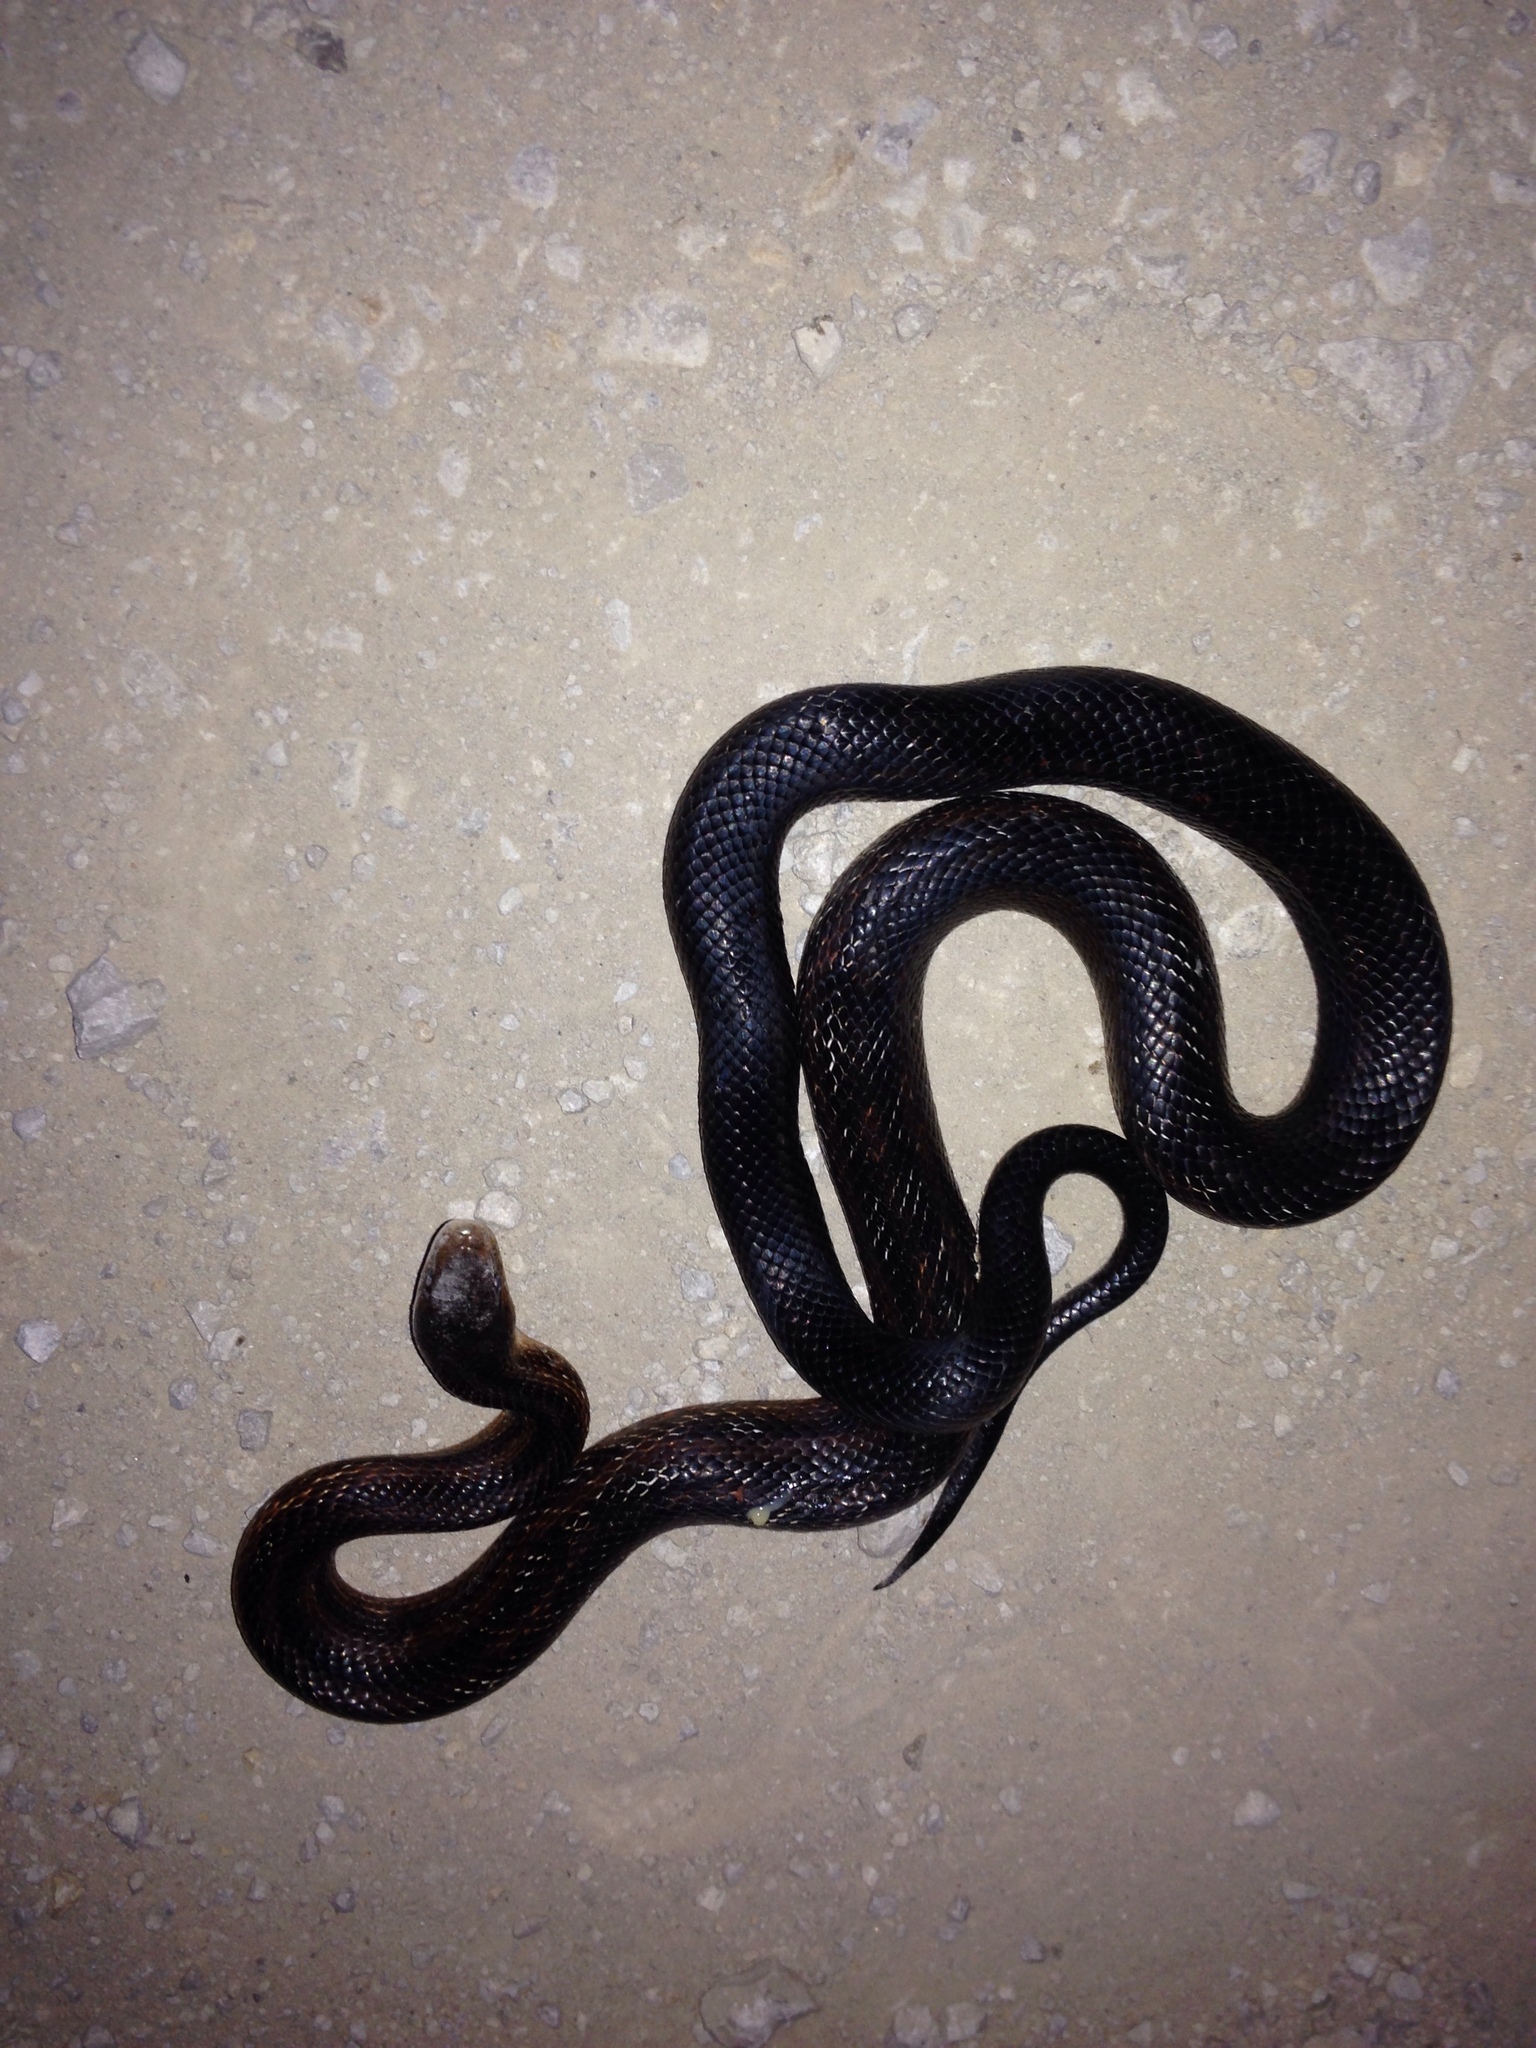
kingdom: Animalia
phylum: Chordata
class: Squamata
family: Colubridae
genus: Pantherophis
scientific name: Pantherophis obsoletus
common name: Black rat snake
